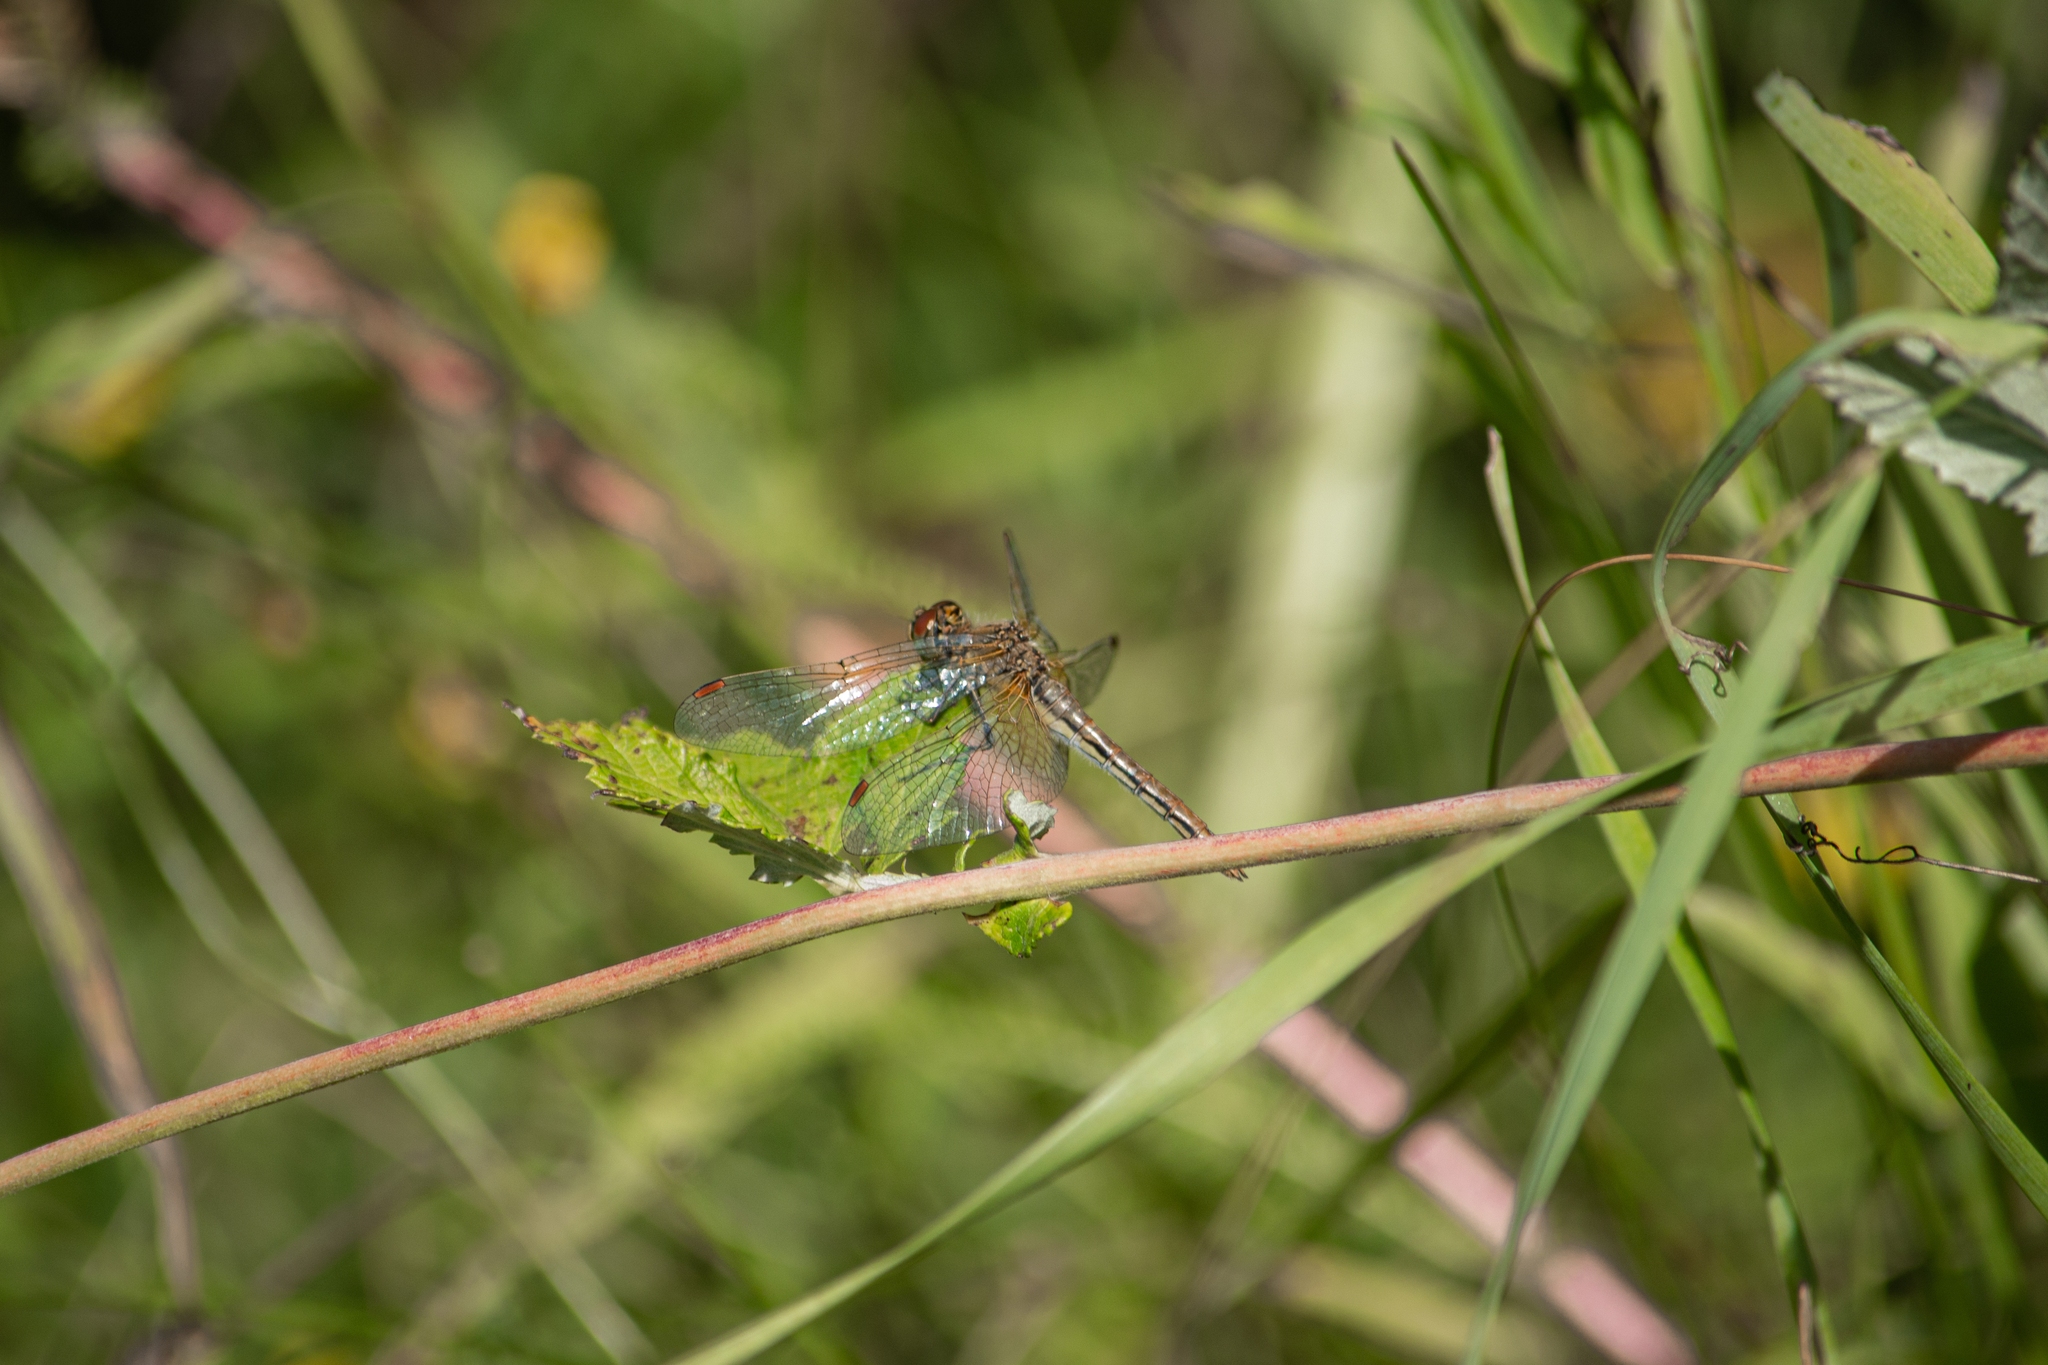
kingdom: Animalia
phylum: Arthropoda
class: Insecta
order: Odonata
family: Libellulidae
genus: Sympetrum
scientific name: Sympetrum flaveolum
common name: Yellow-winged darter
